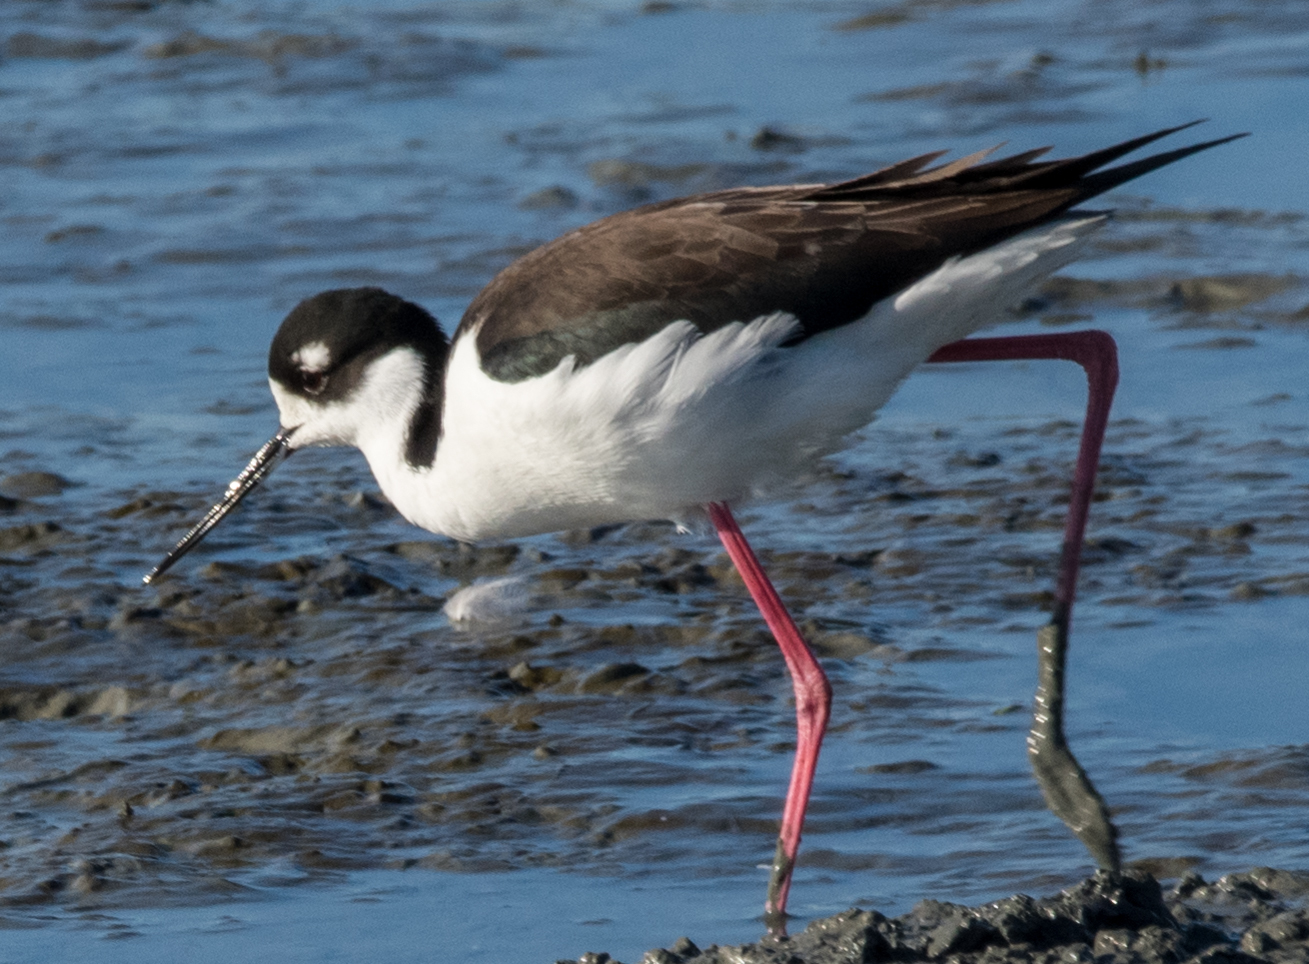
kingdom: Animalia
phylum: Chordata
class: Aves
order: Charadriiformes
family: Recurvirostridae
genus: Himantopus
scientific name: Himantopus mexicanus
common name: Black-necked stilt
